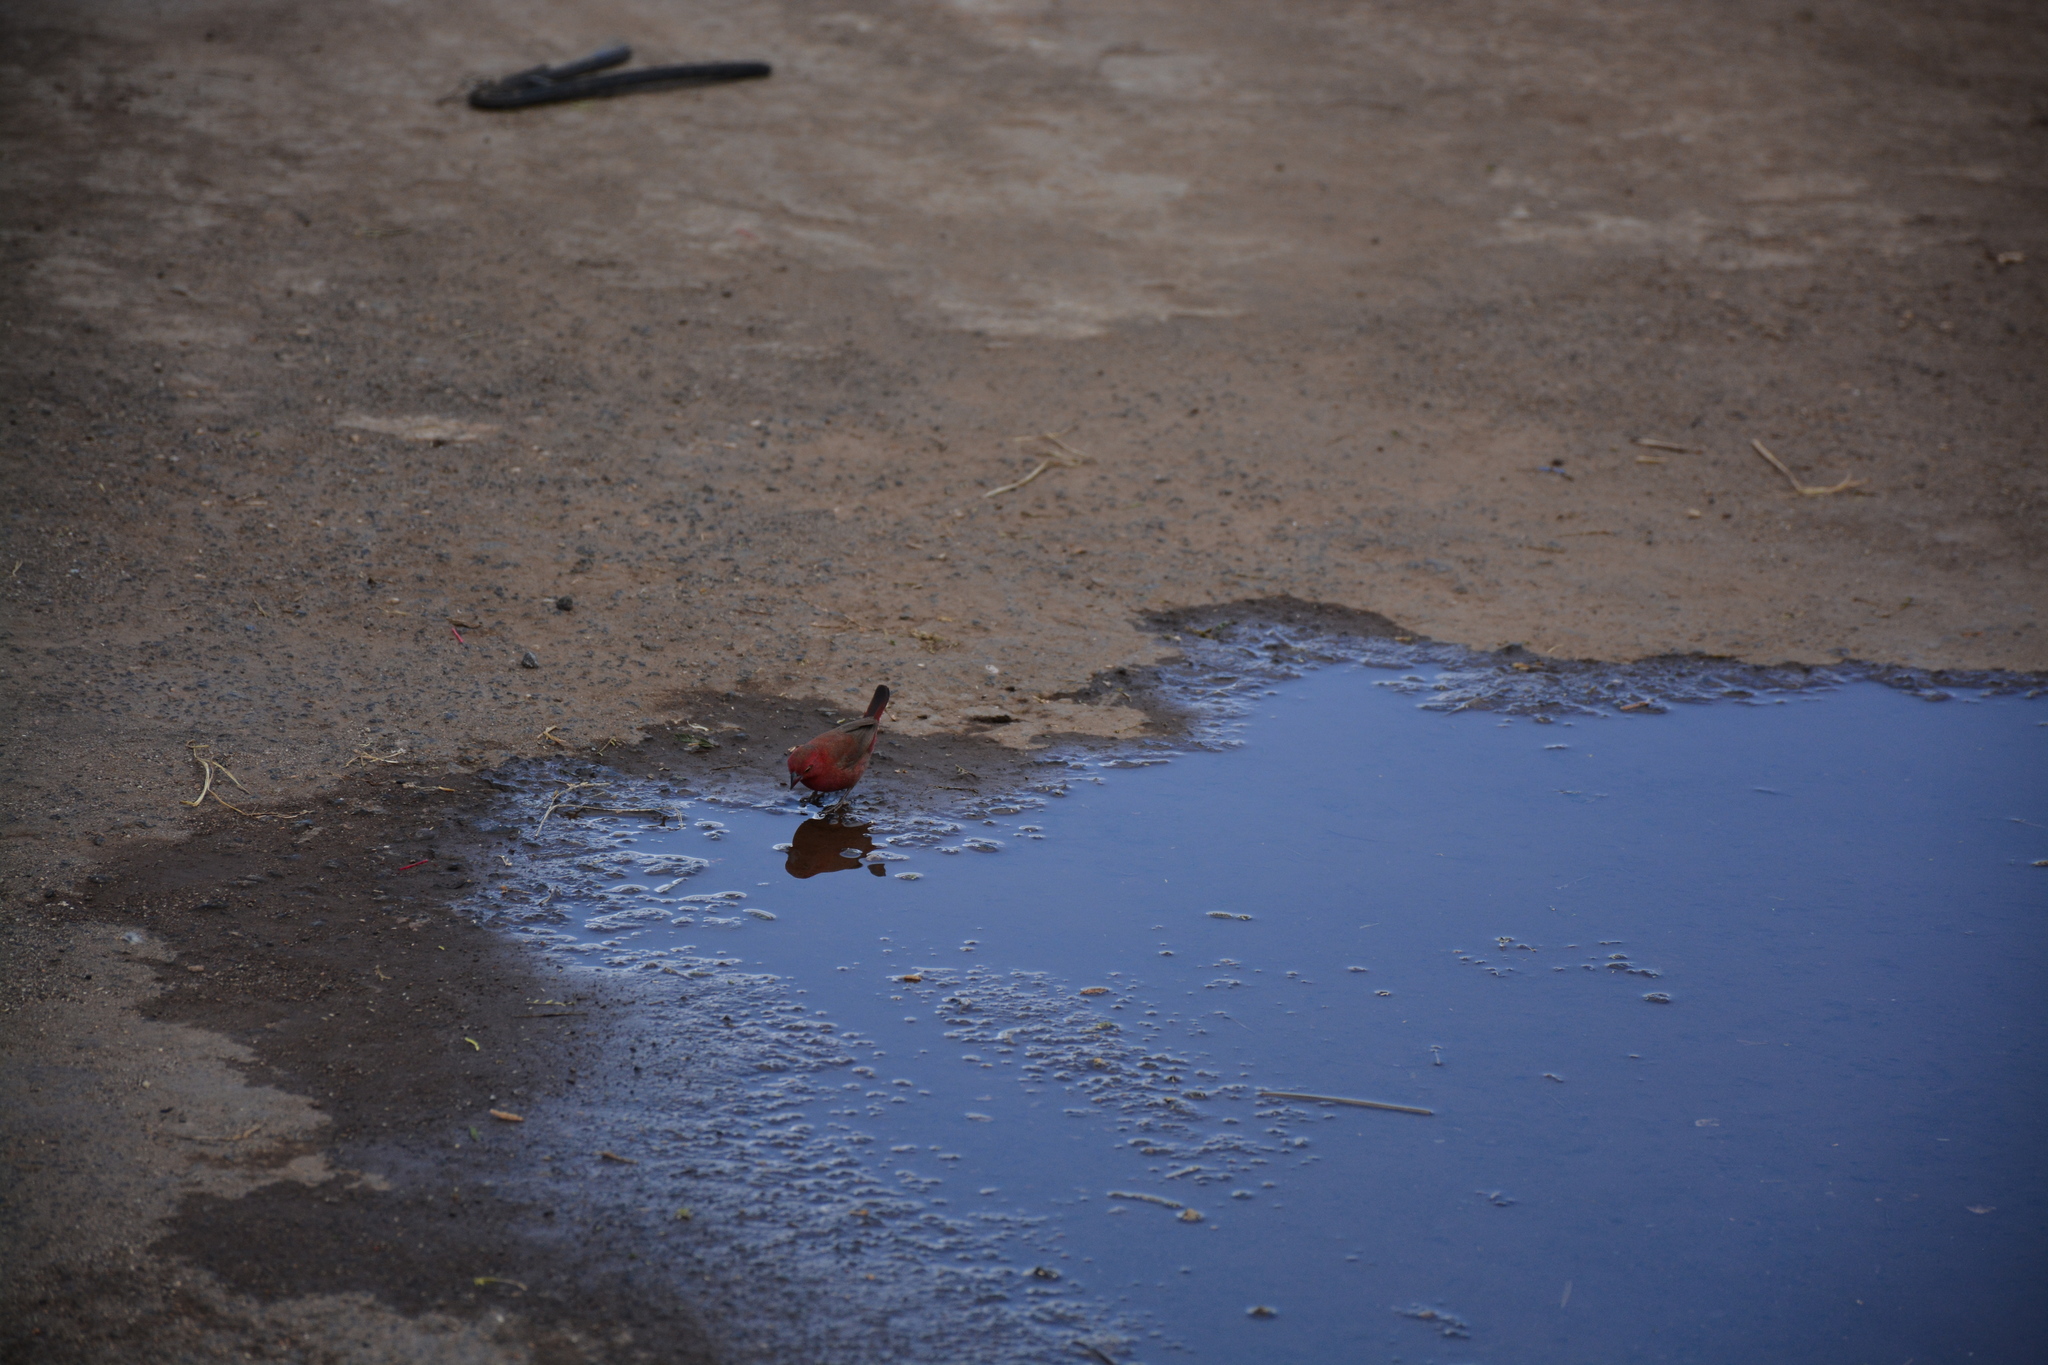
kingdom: Animalia
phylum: Chordata
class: Aves
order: Passeriformes
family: Estrildidae
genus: Lagonosticta
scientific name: Lagonosticta rubricata
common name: African firefinch
